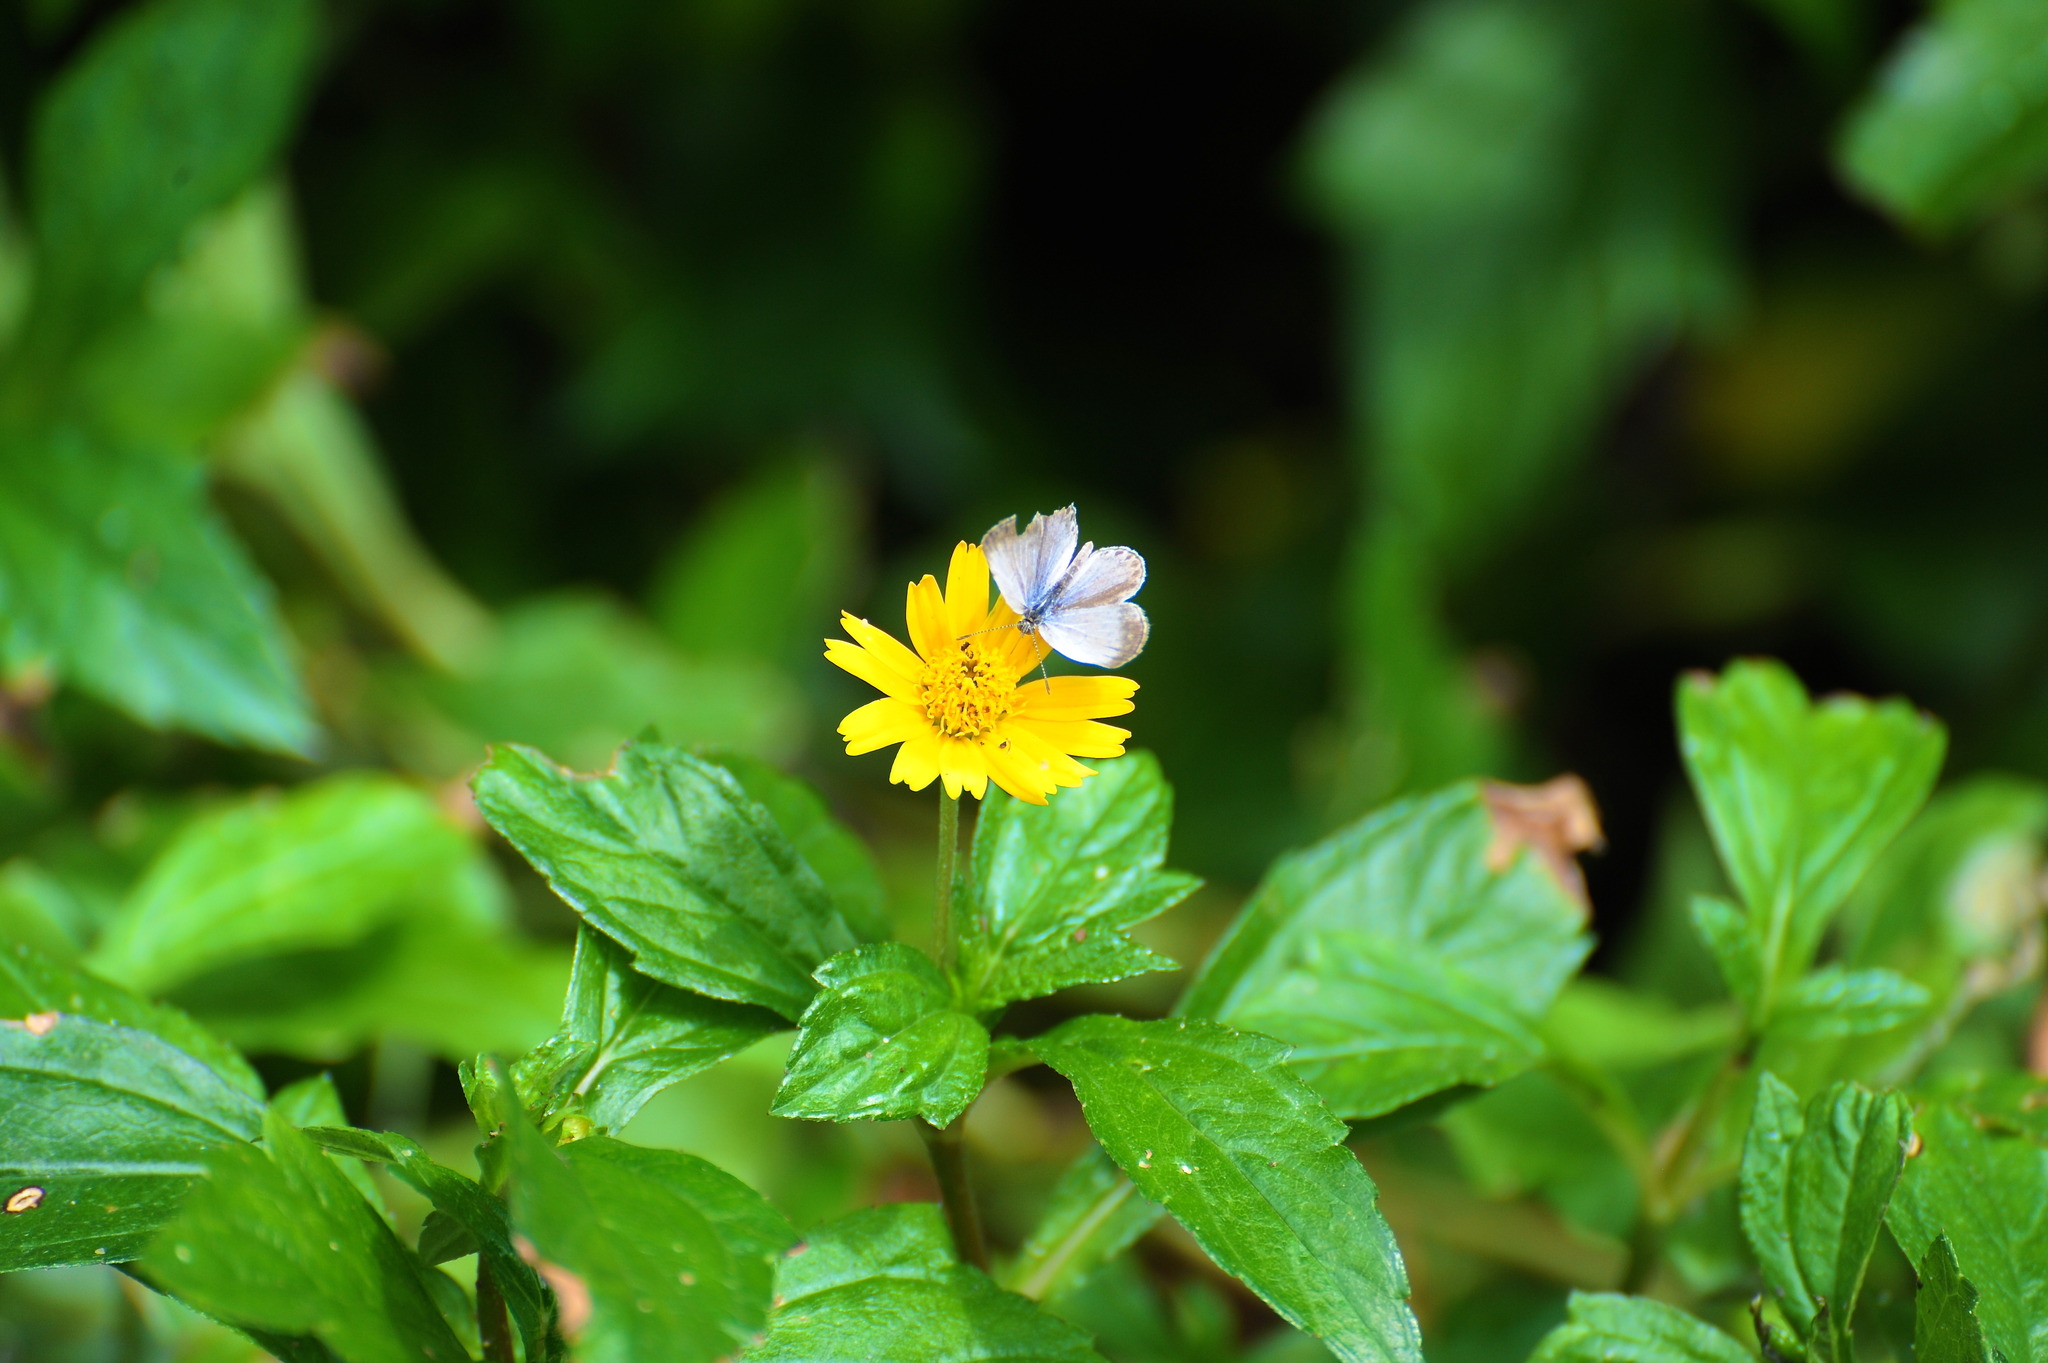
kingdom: Animalia
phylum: Arthropoda
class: Insecta
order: Lepidoptera
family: Lycaenidae
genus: Pseudozizeeria
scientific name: Pseudozizeeria maha
